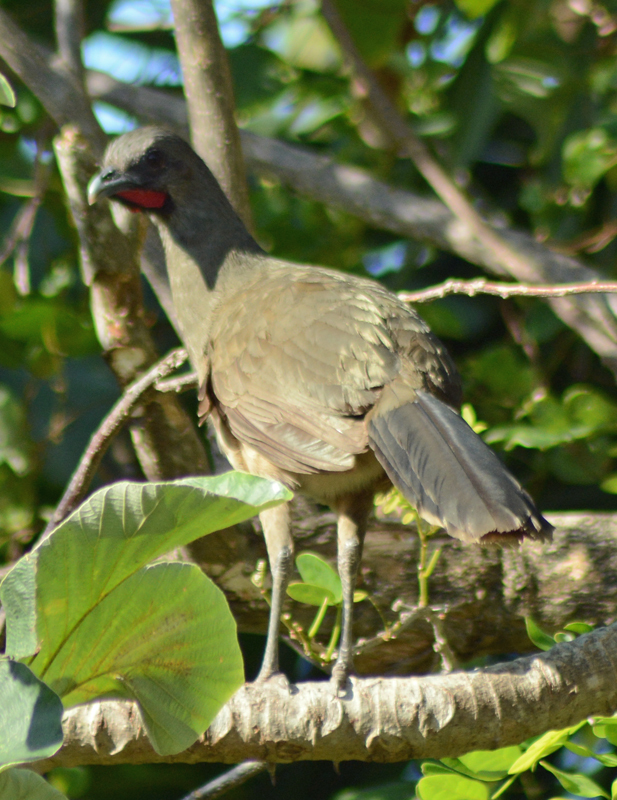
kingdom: Animalia
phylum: Chordata
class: Aves
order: Galliformes
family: Cracidae
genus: Ortalis
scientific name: Ortalis vetula
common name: Plain chachalaca
